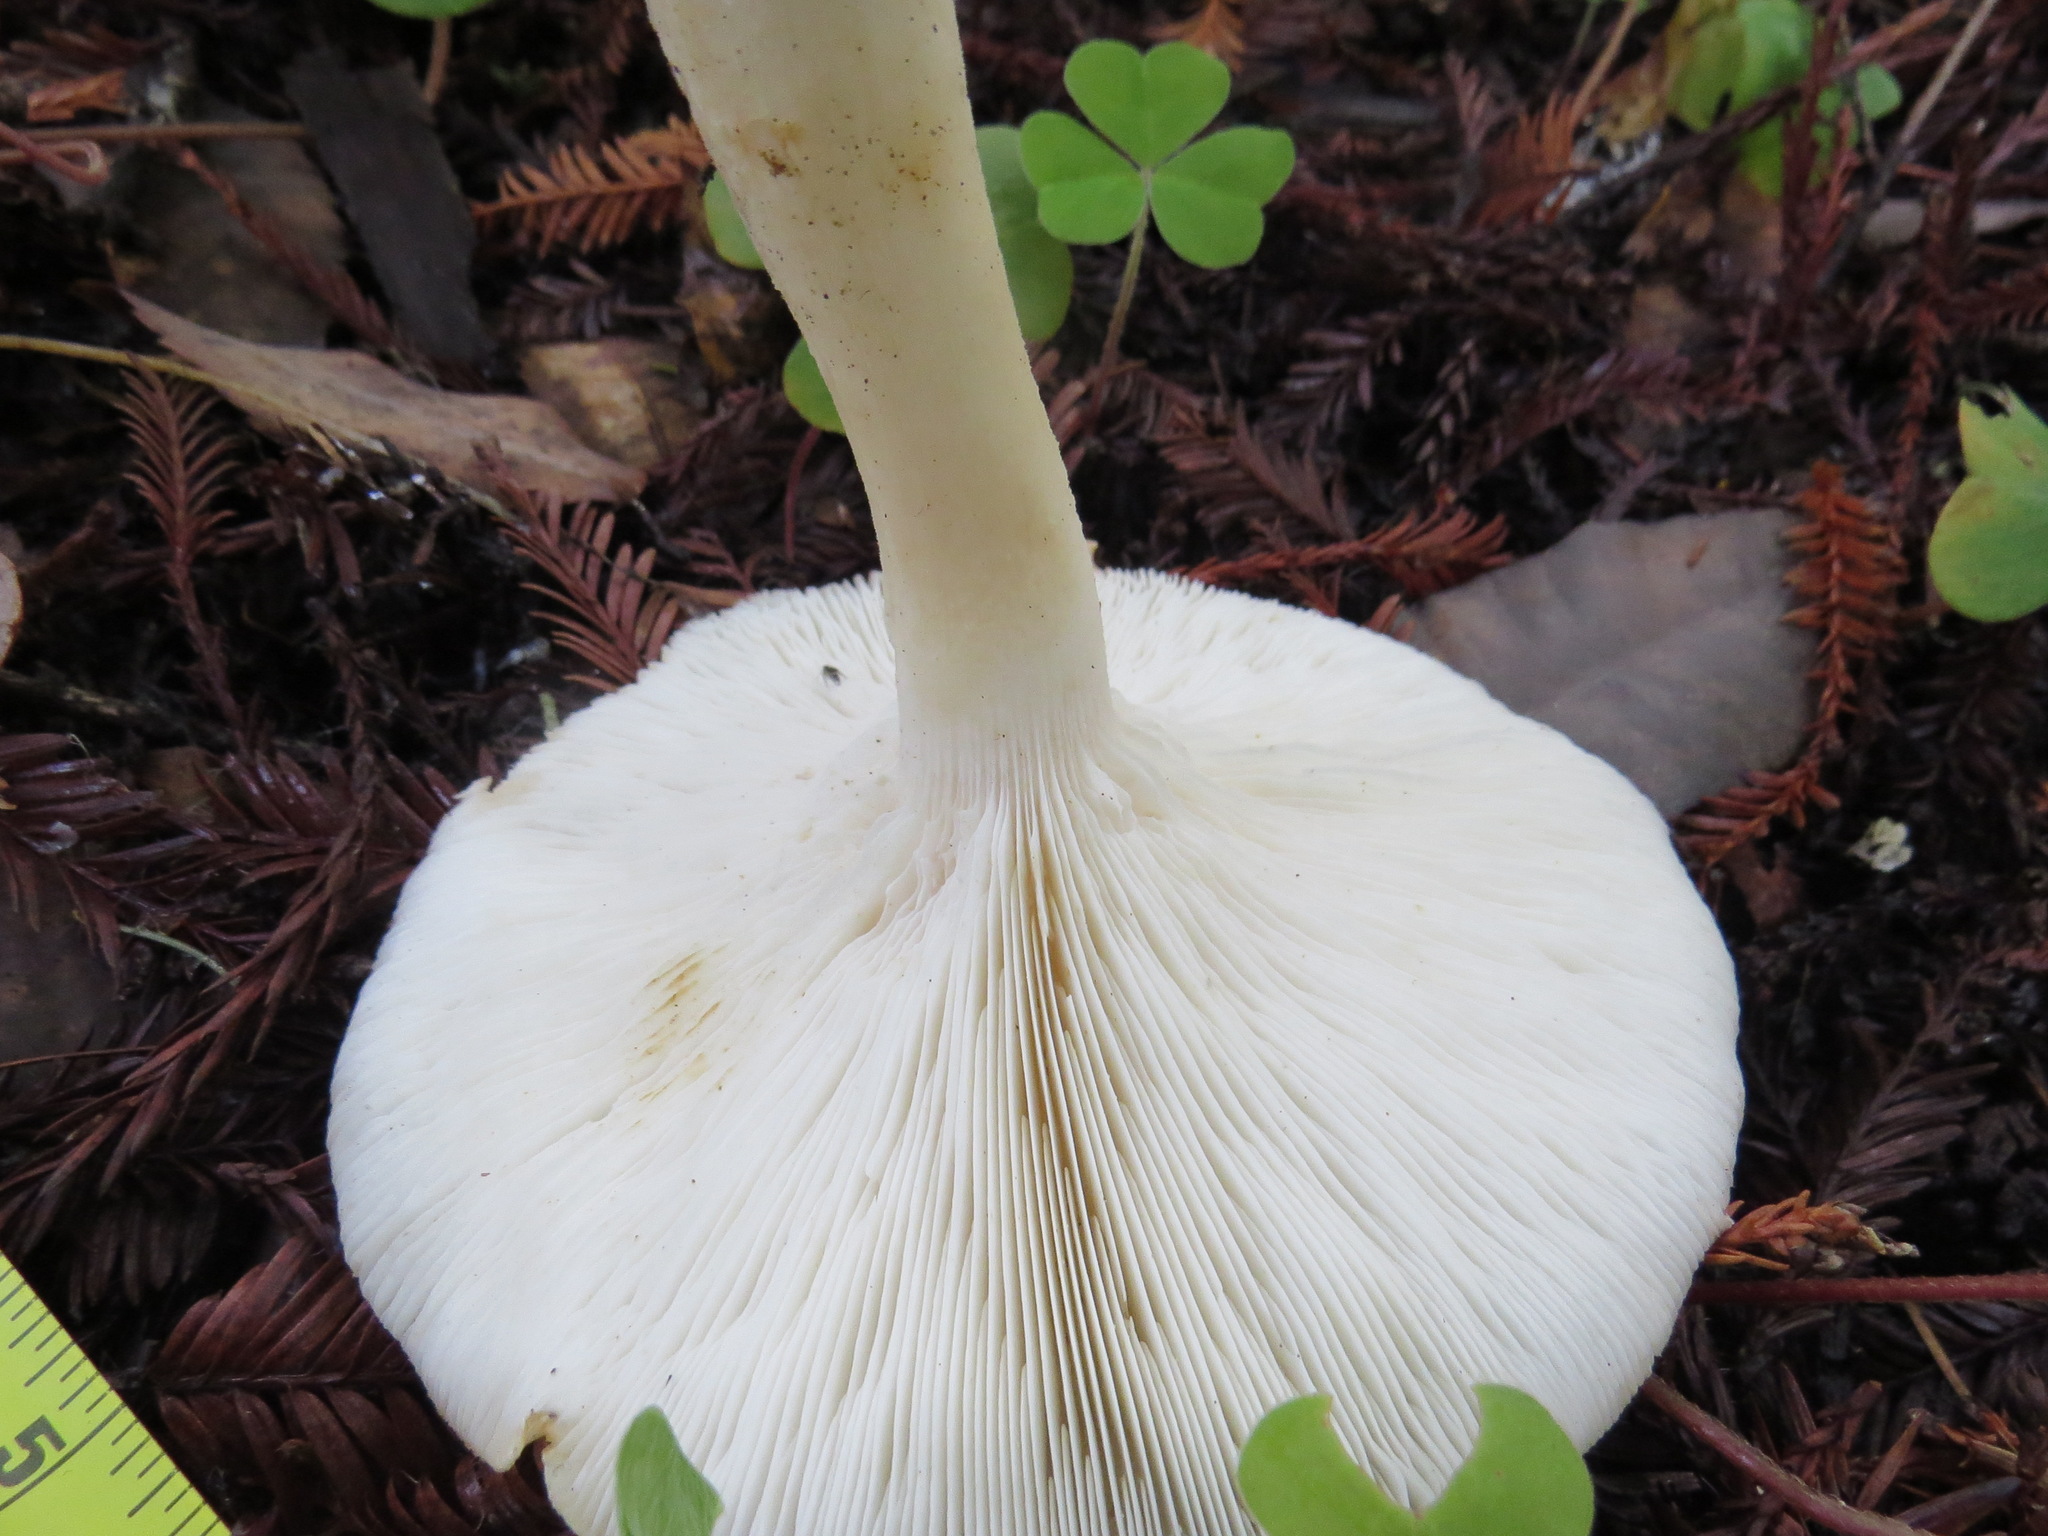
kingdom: Fungi
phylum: Basidiomycota
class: Agaricomycetes
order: Agaricales
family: Tricholomataceae
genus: Leucopaxillus
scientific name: Leucopaxillus gentianeus
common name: Bitter funnel
